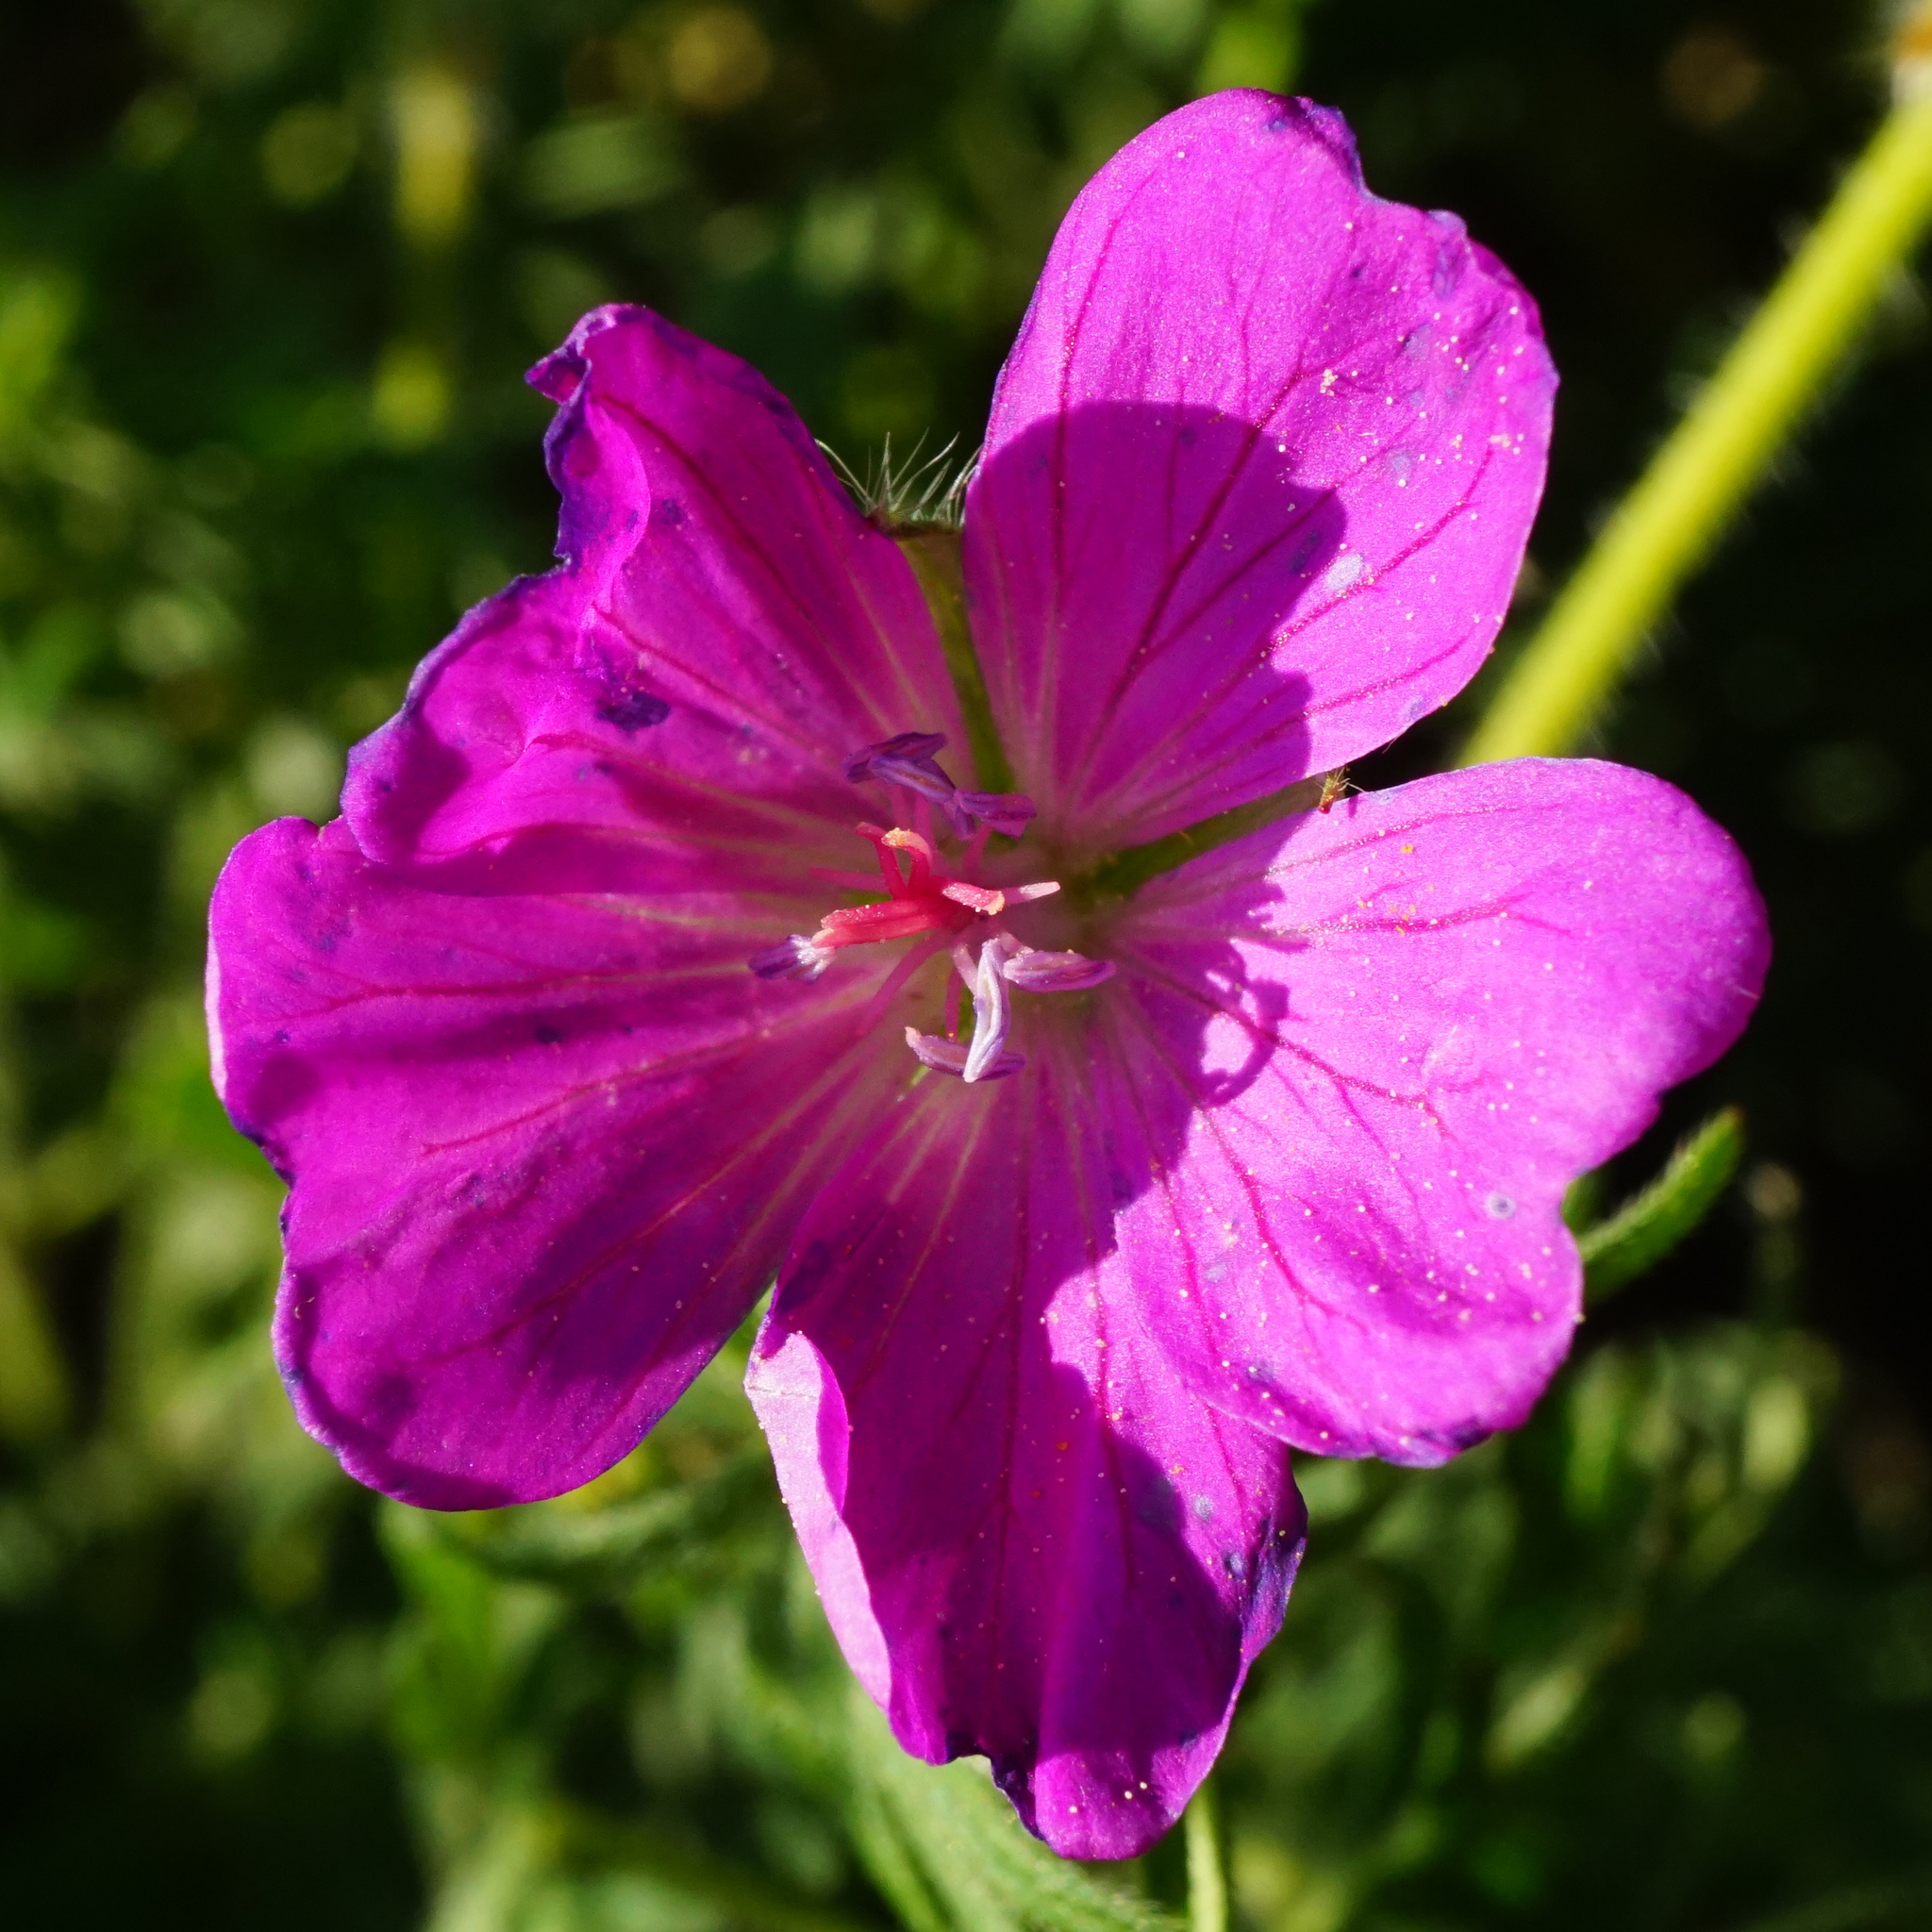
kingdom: Plantae
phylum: Tracheophyta
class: Magnoliopsida
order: Geraniales
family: Geraniaceae
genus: Geranium
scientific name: Geranium sanguineum
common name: Bloody crane's-bill
